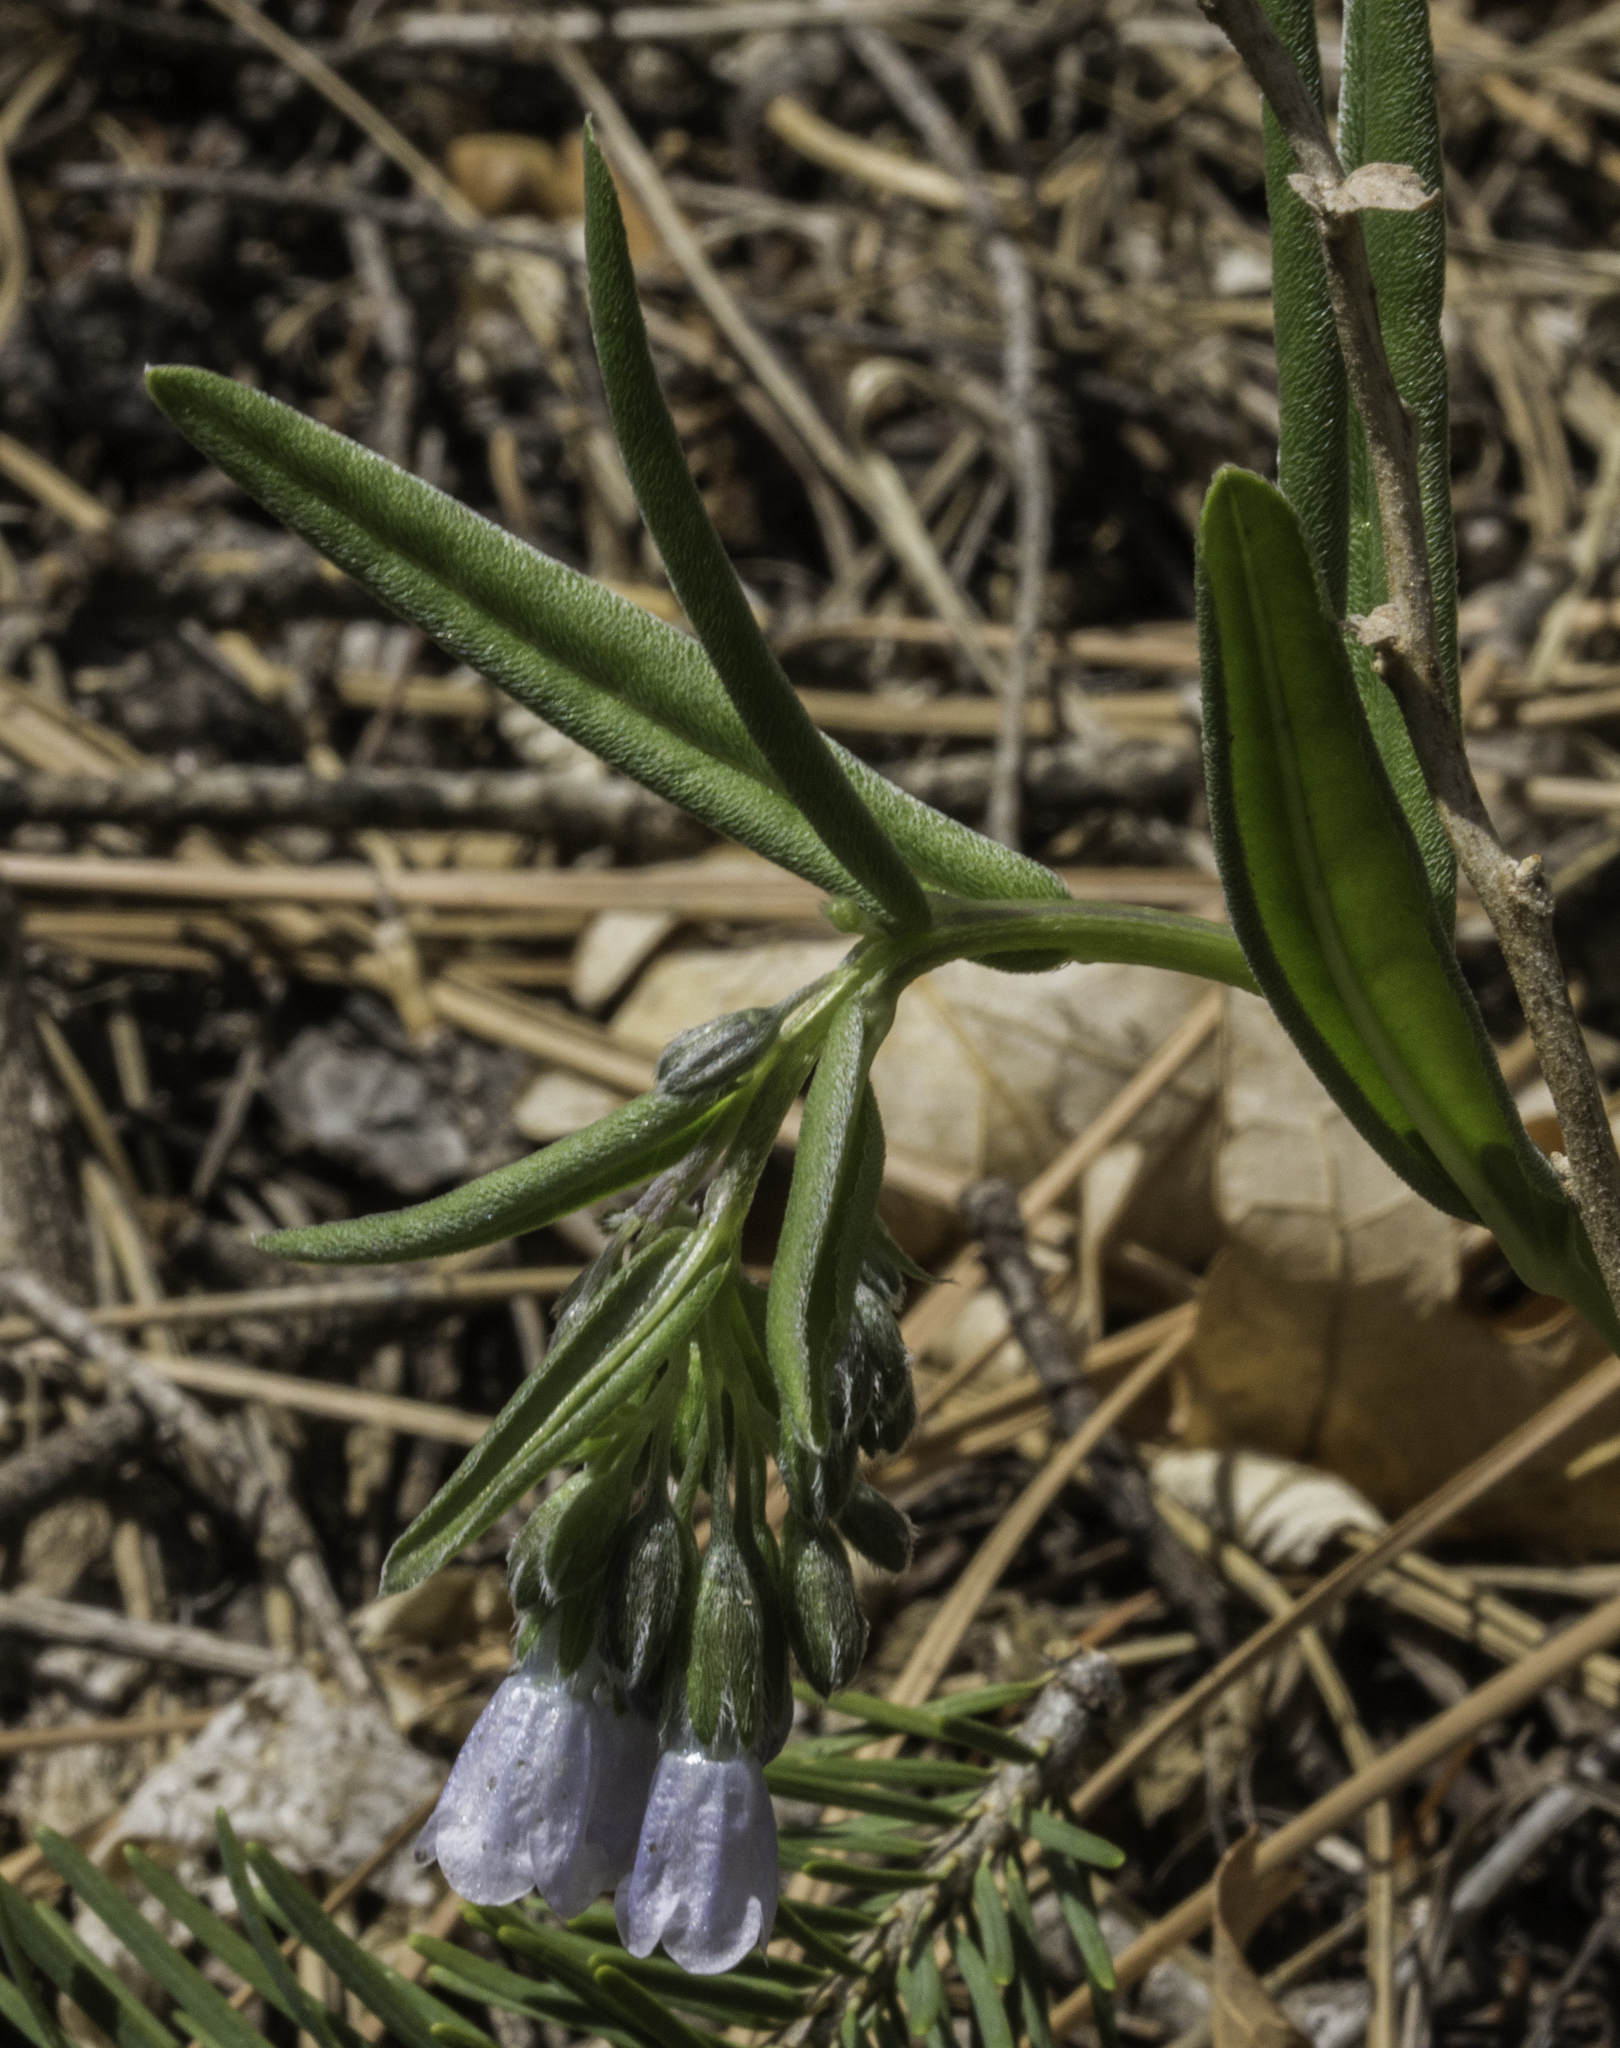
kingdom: Plantae
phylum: Tracheophyta
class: Magnoliopsida
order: Boraginales
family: Boraginaceae
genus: Mertensia
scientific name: Mertensia fendleri
